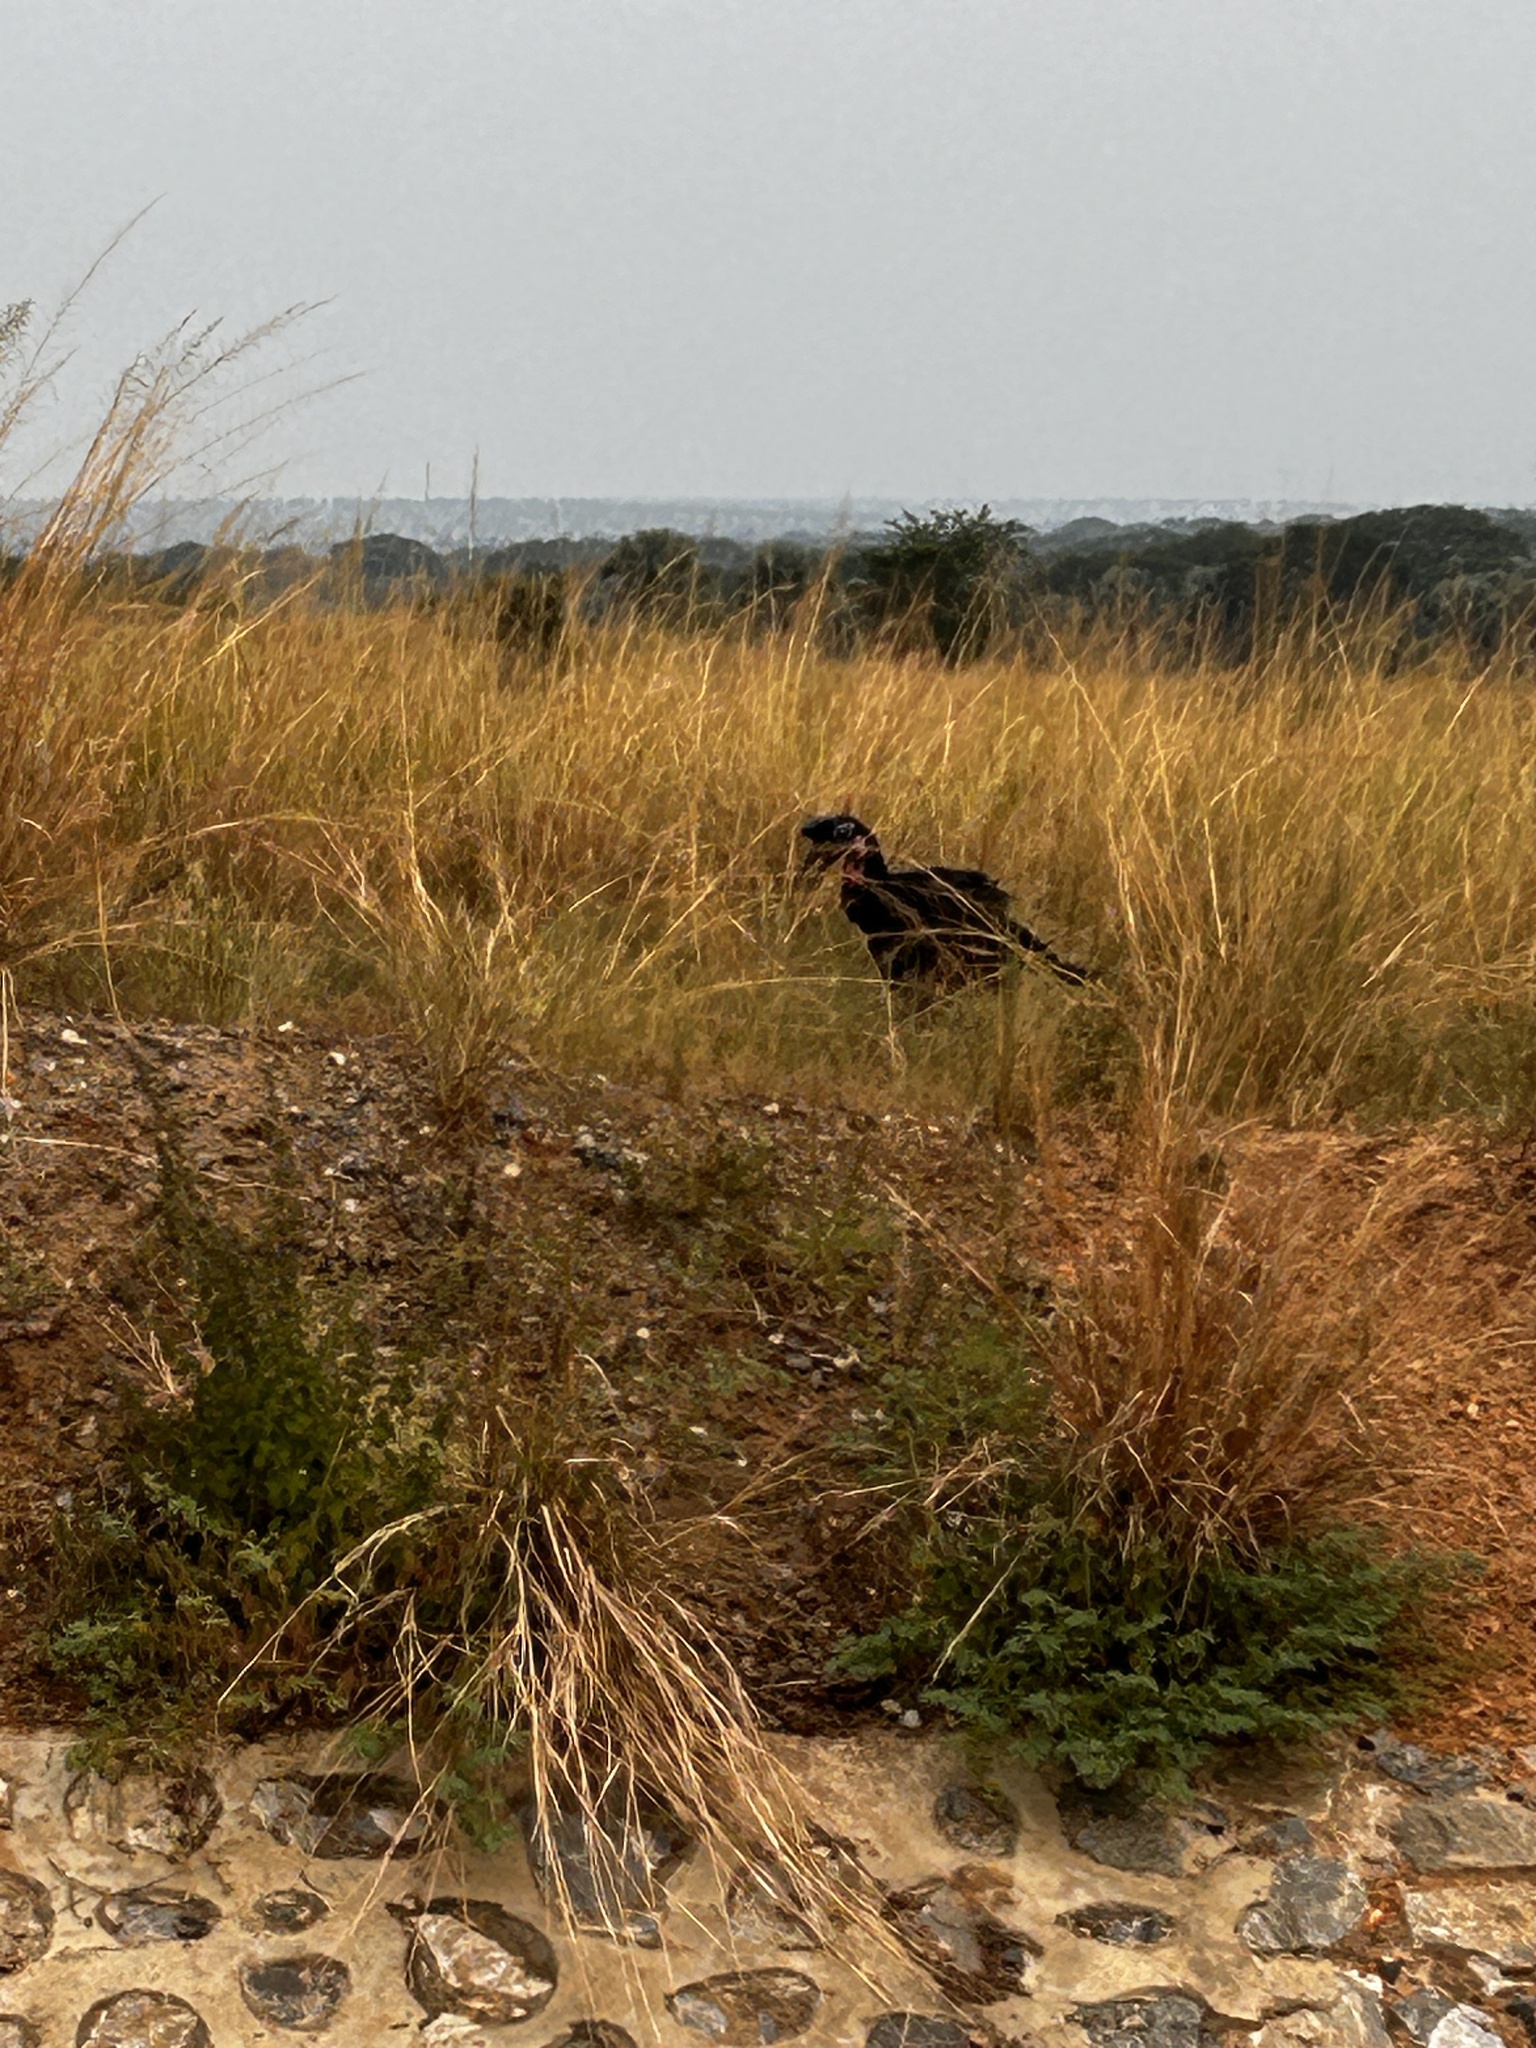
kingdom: Animalia
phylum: Chordata
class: Aves
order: Bucerotiformes
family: Bucorvidae
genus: Bucorvus
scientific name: Bucorvus abyssinicus
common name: Abyssinian ground hornbill
